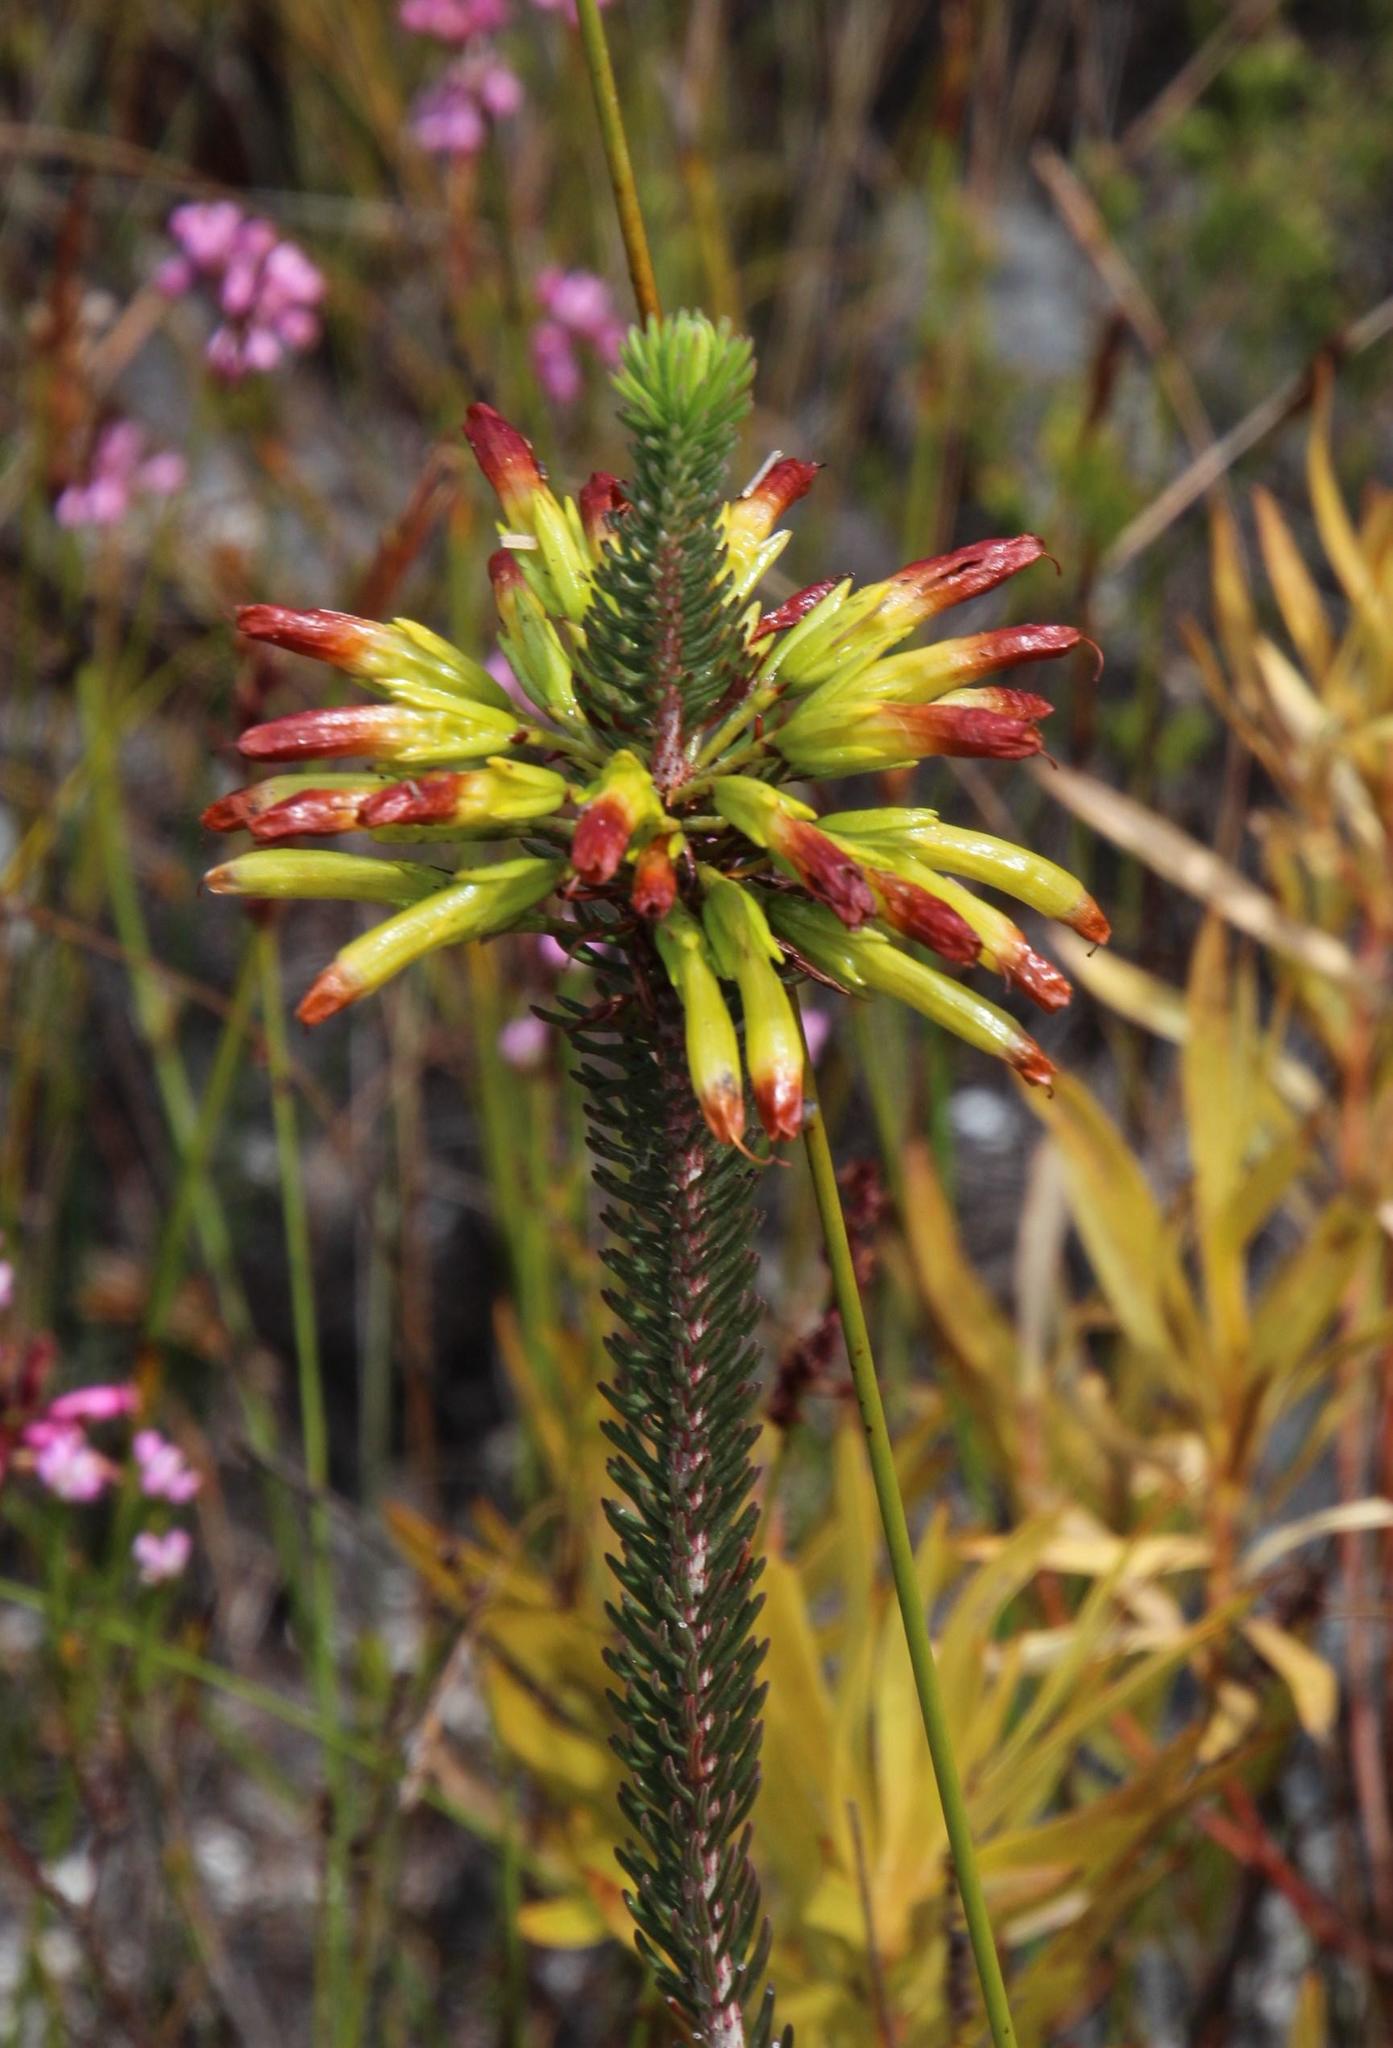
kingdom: Plantae
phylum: Tracheophyta
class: Magnoliopsida
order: Ericales
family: Ericaceae
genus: Erica
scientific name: Erica thomae
